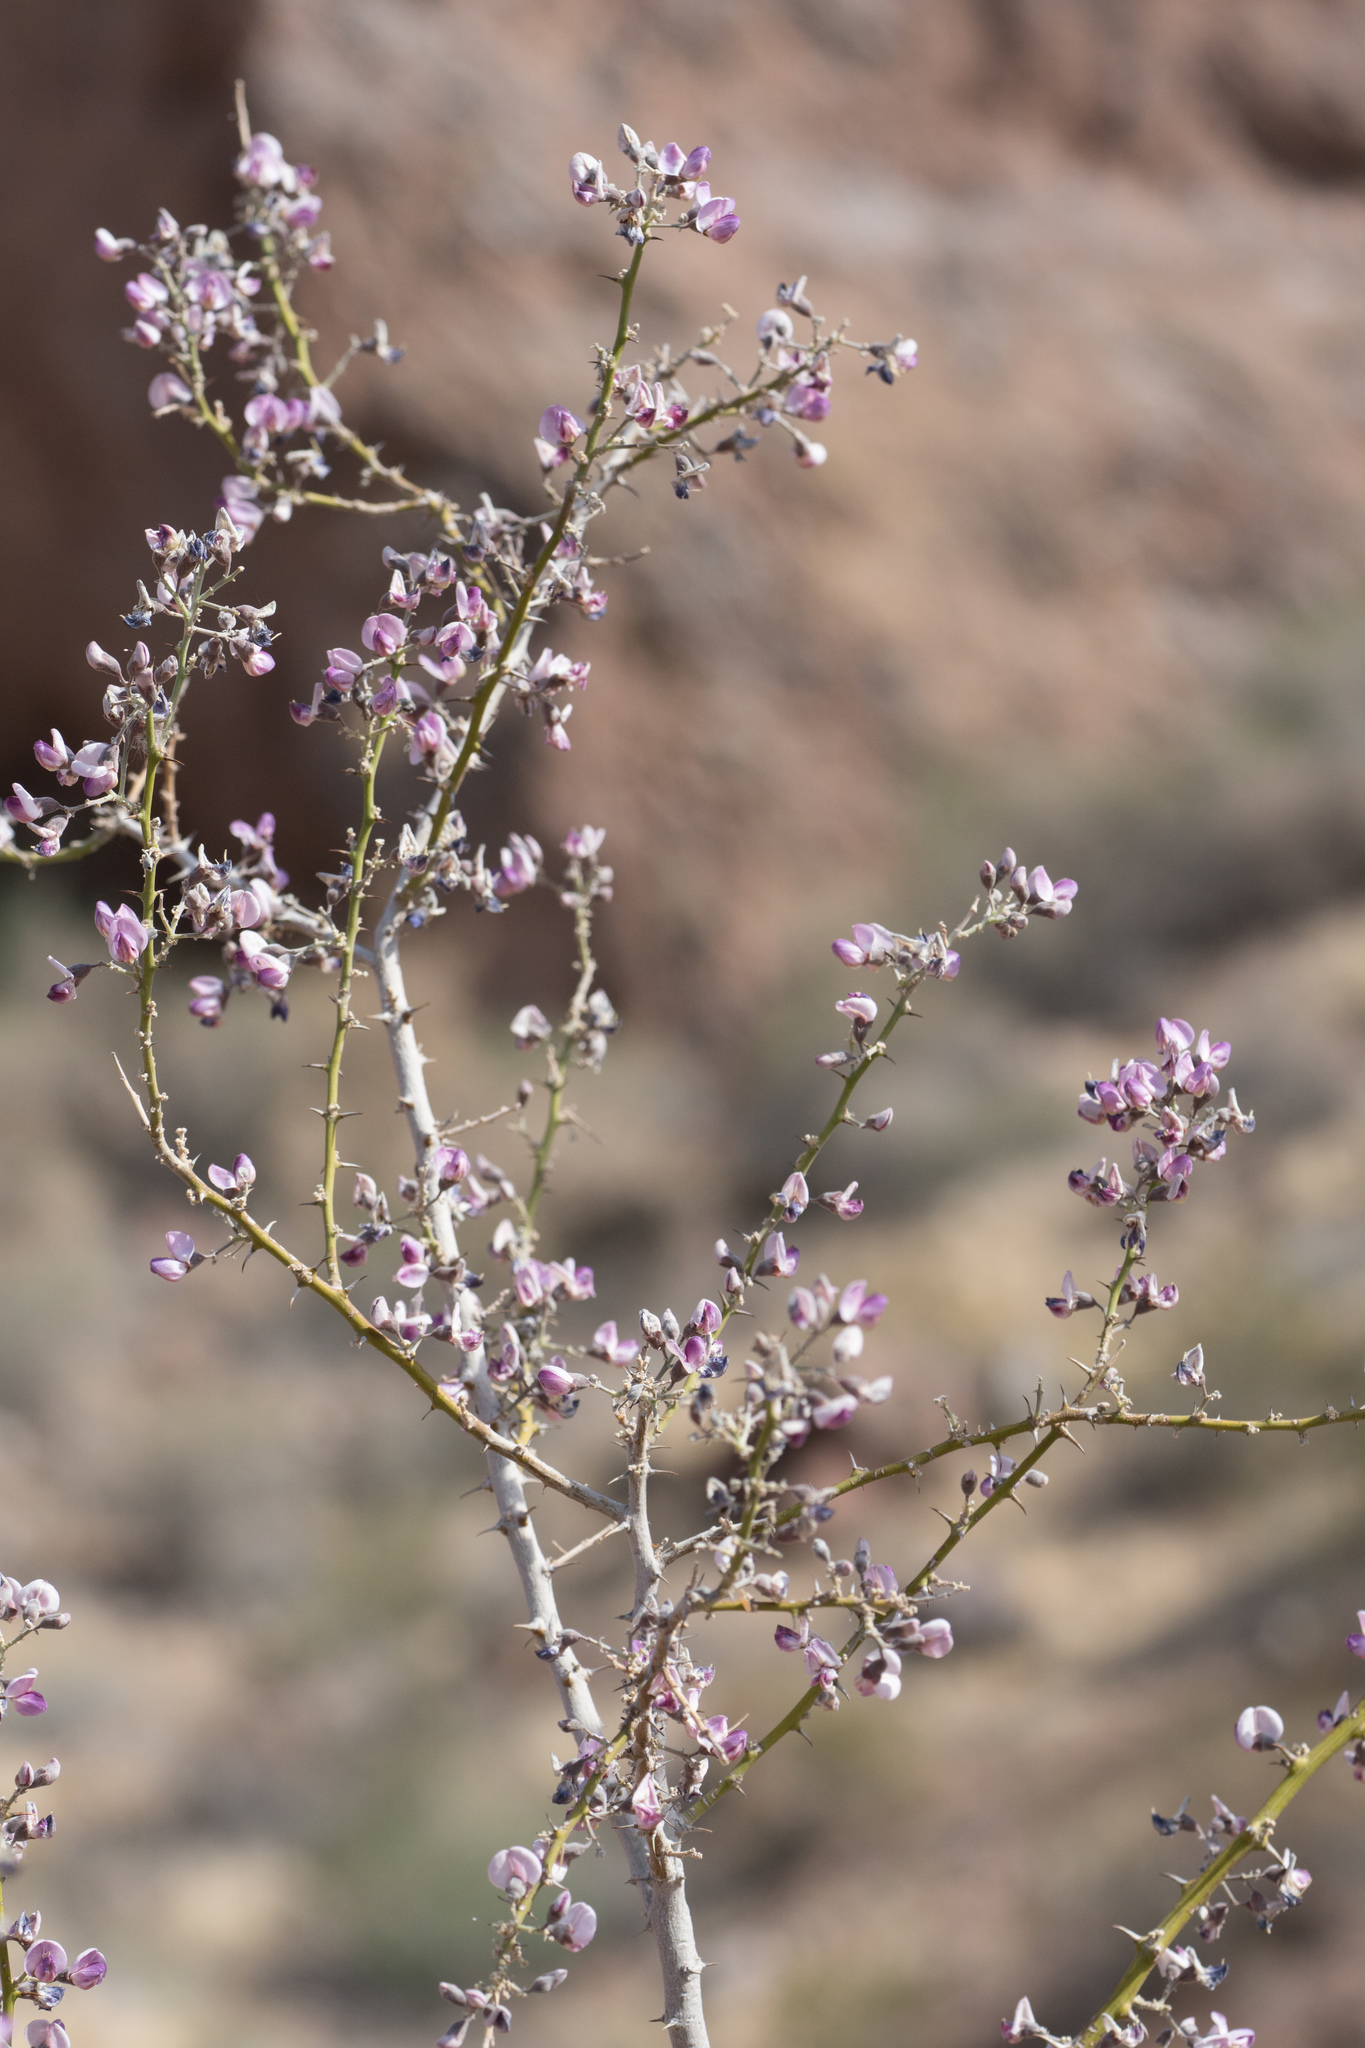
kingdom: Plantae
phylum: Tracheophyta
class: Magnoliopsida
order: Fabales
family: Fabaceae
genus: Olneya
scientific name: Olneya tesota
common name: Desert ironwood
